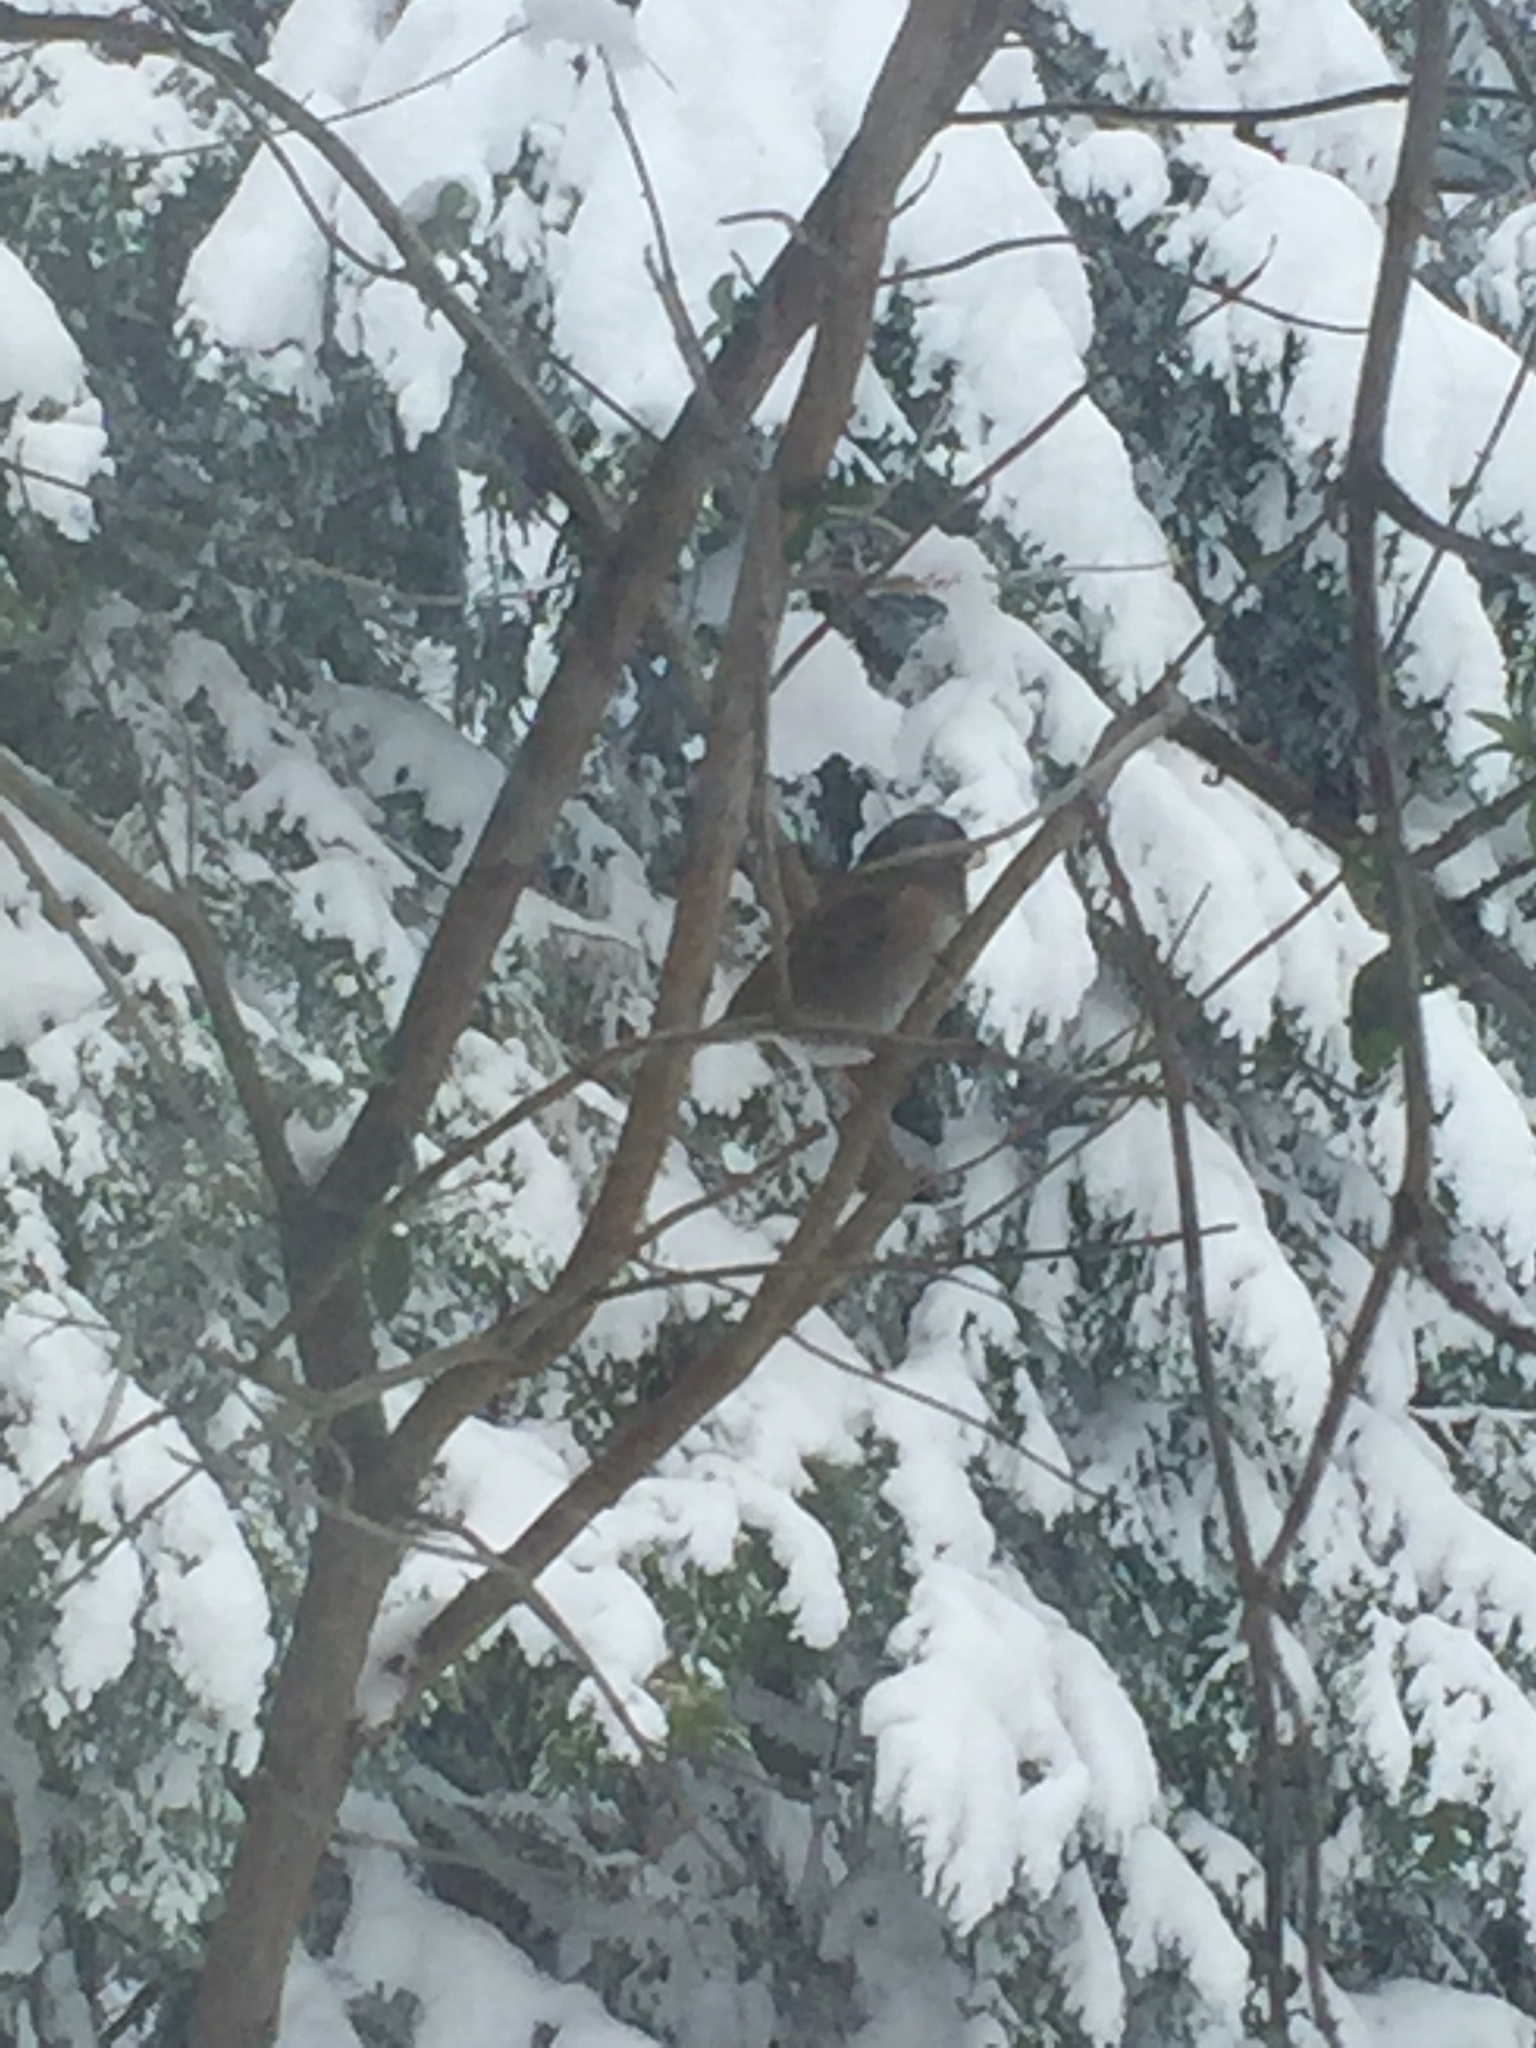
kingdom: Animalia
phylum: Chordata
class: Aves
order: Passeriformes
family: Passerellidae
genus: Junco
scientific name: Junco hyemalis
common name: Dark-eyed junco
